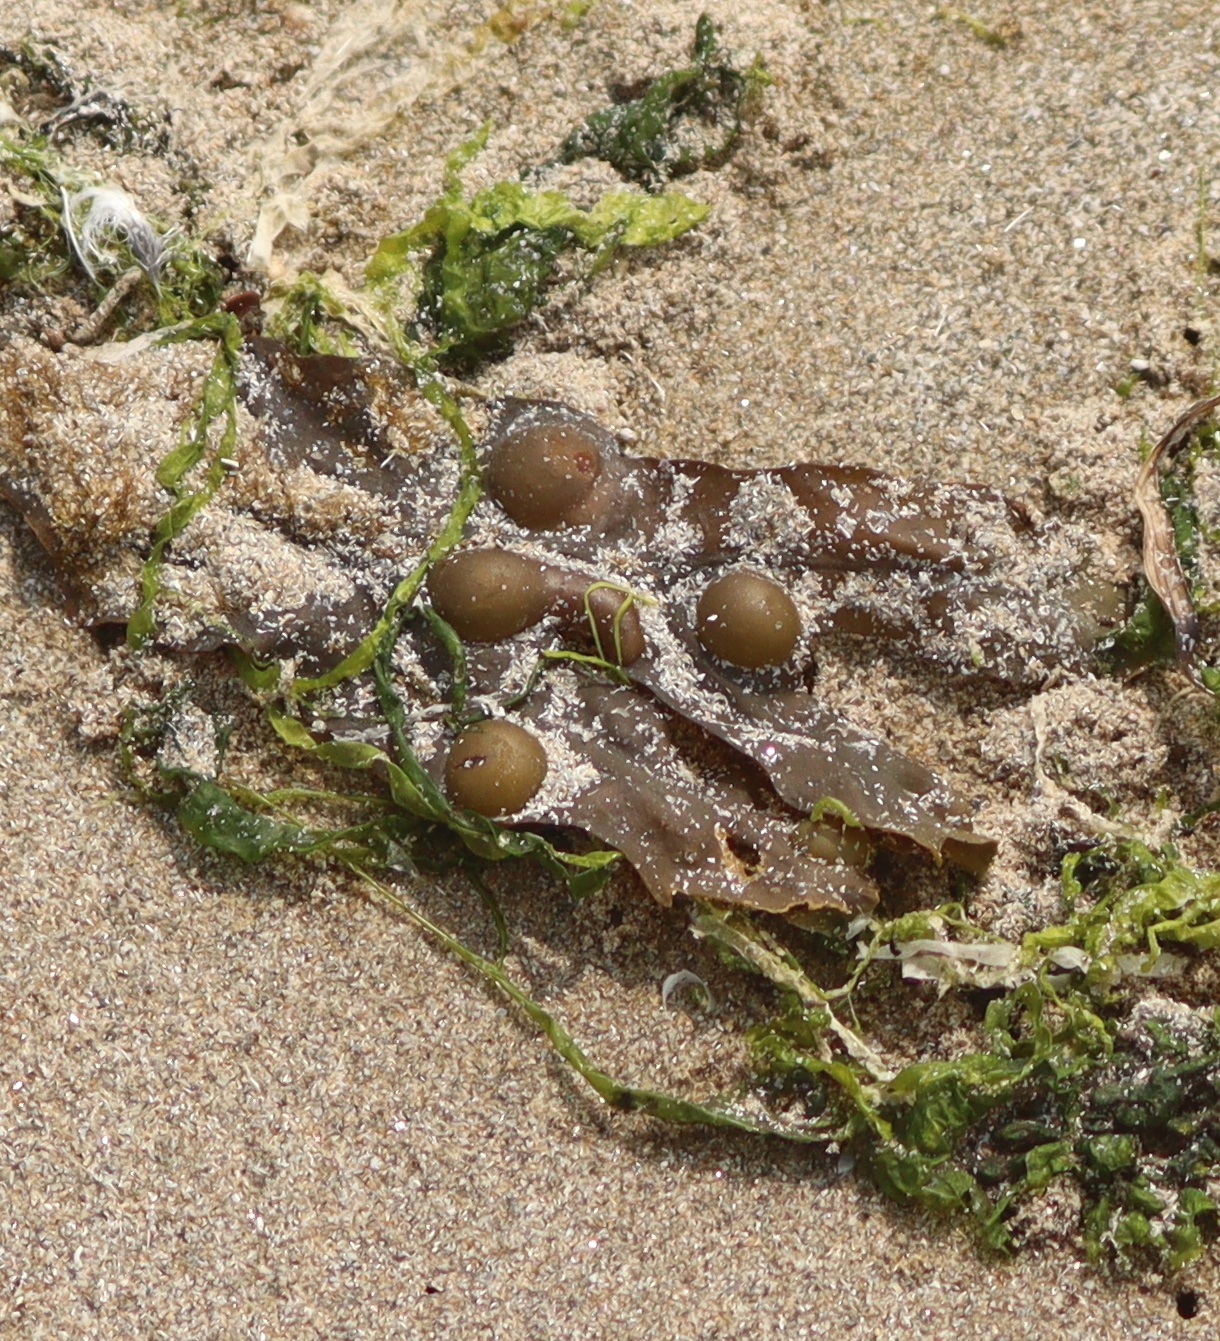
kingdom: Chromista
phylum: Ochrophyta
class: Phaeophyceae
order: Fucales
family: Fucaceae
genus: Fucus
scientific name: Fucus vesiculosus
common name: Bladder wrack
